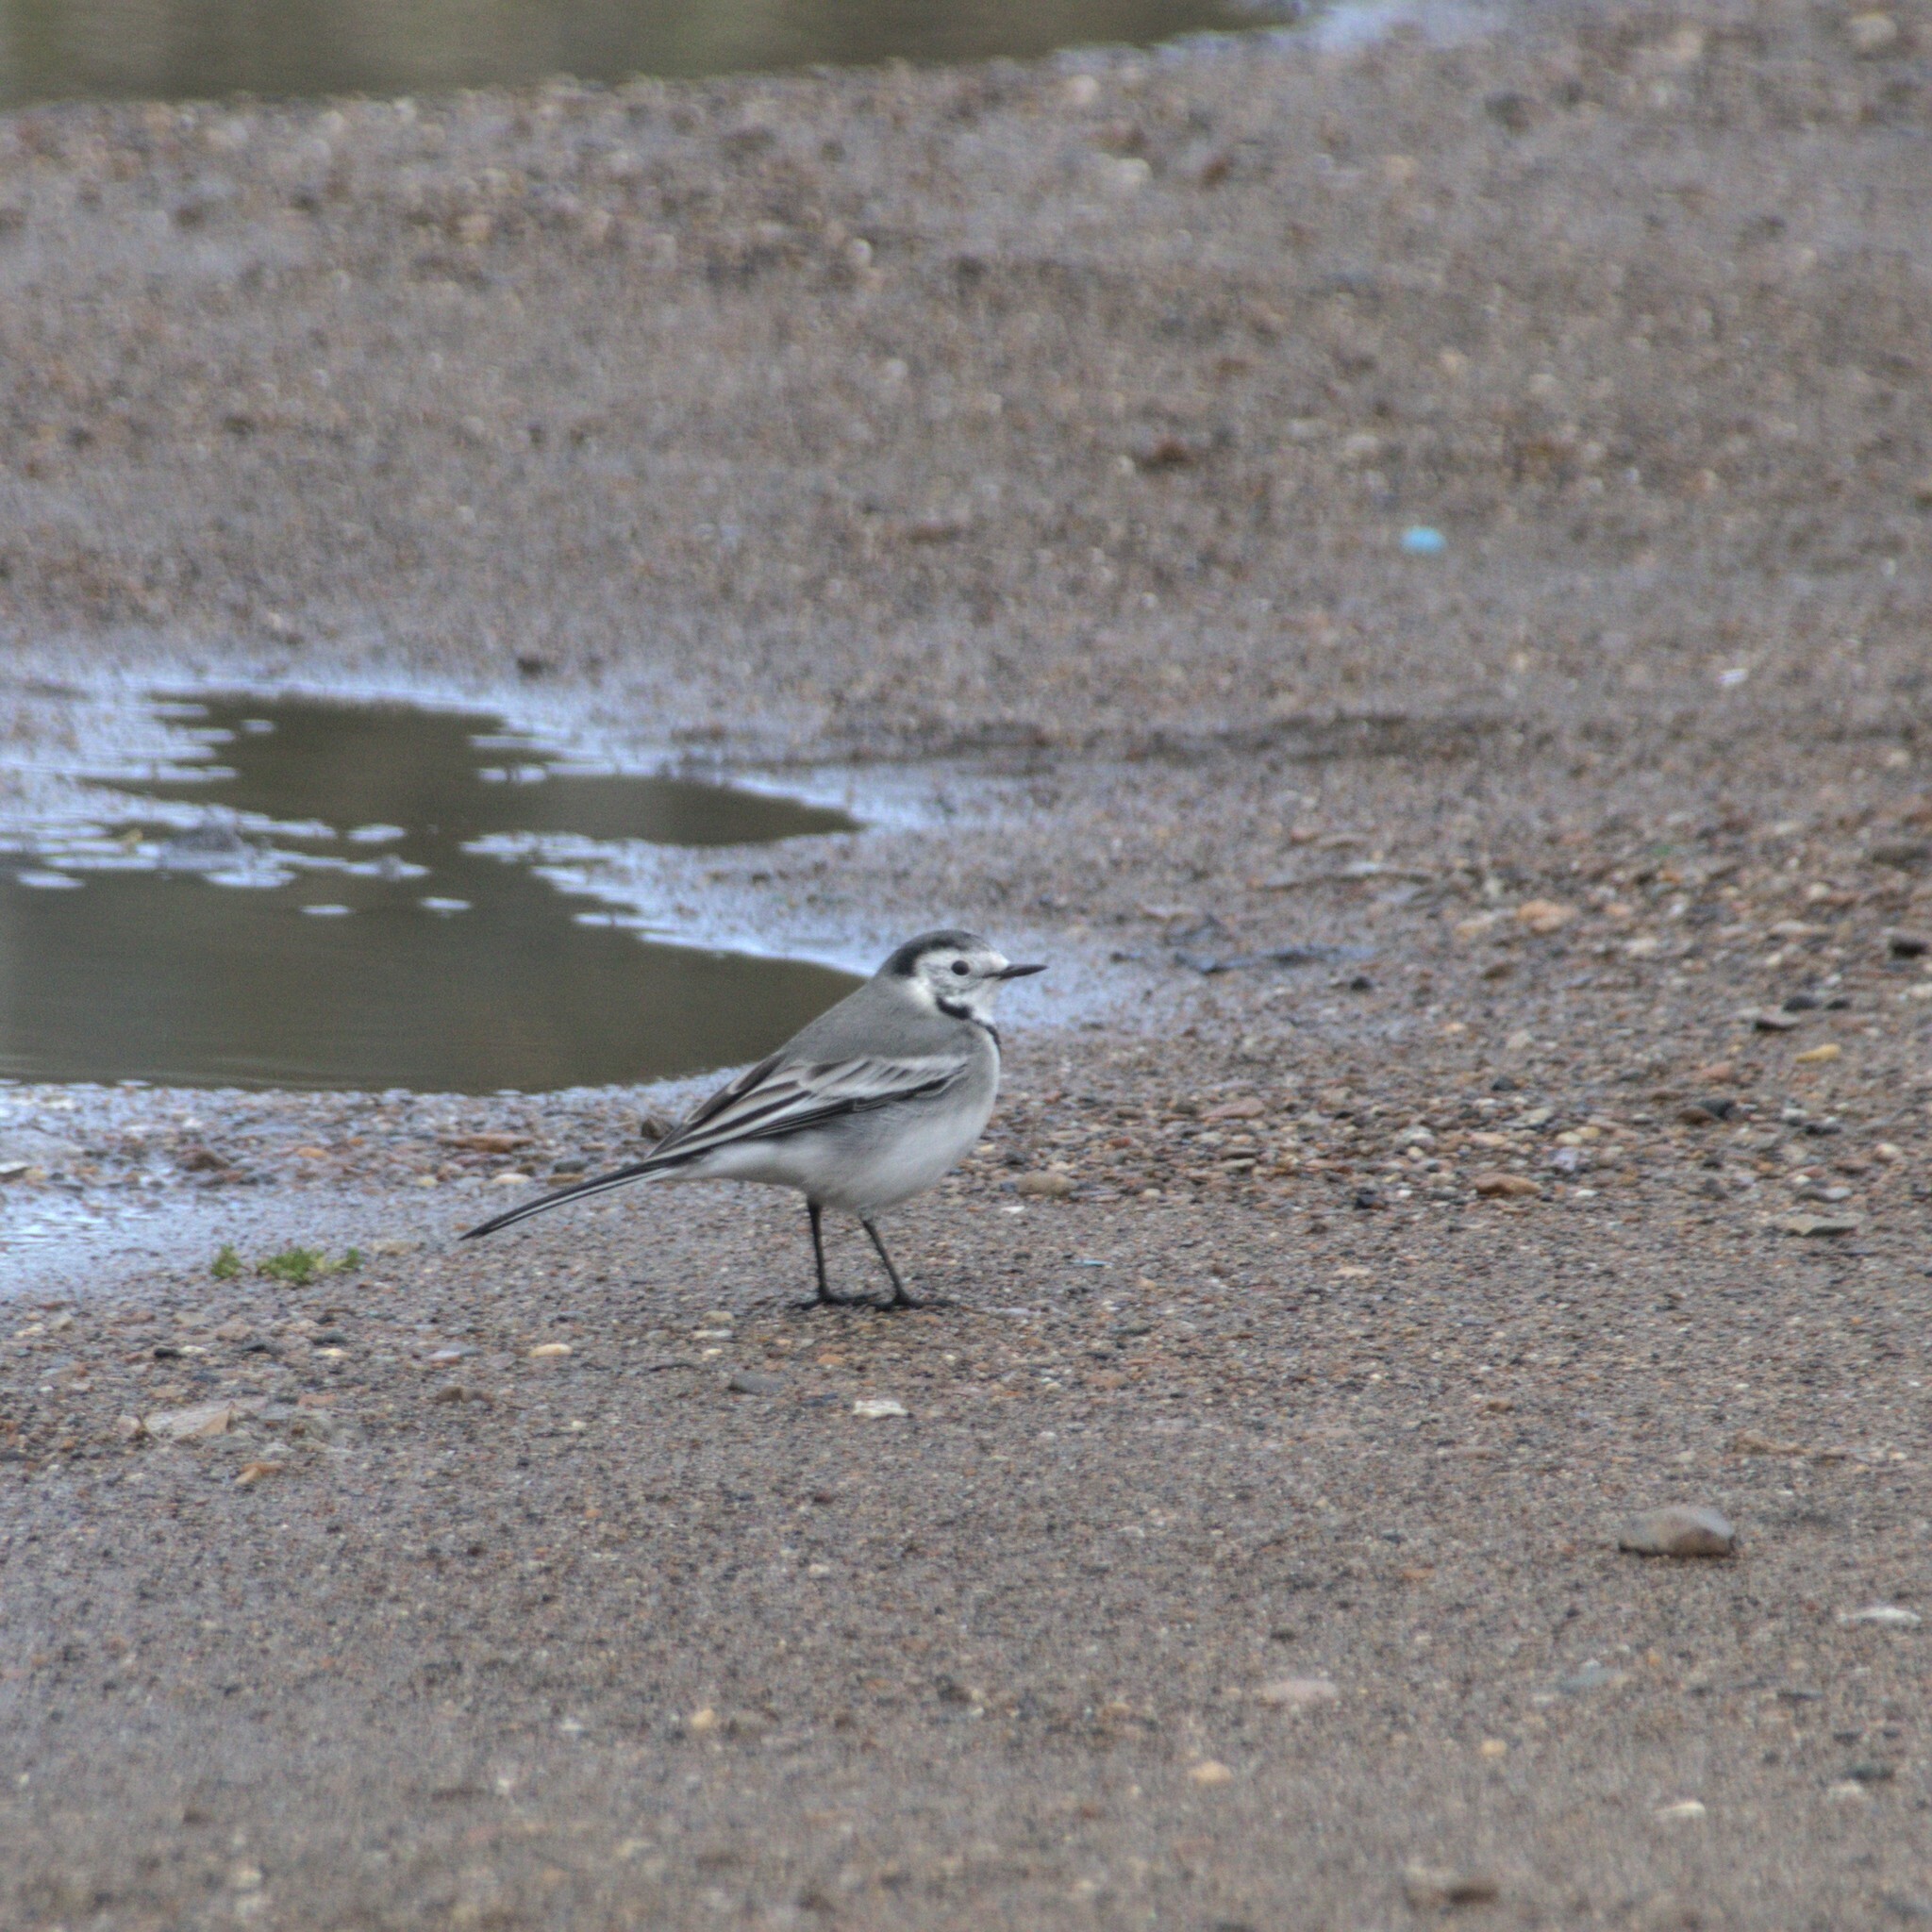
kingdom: Animalia
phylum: Chordata
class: Aves
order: Passeriformes
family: Motacillidae
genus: Motacilla
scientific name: Motacilla alba
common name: White wagtail
